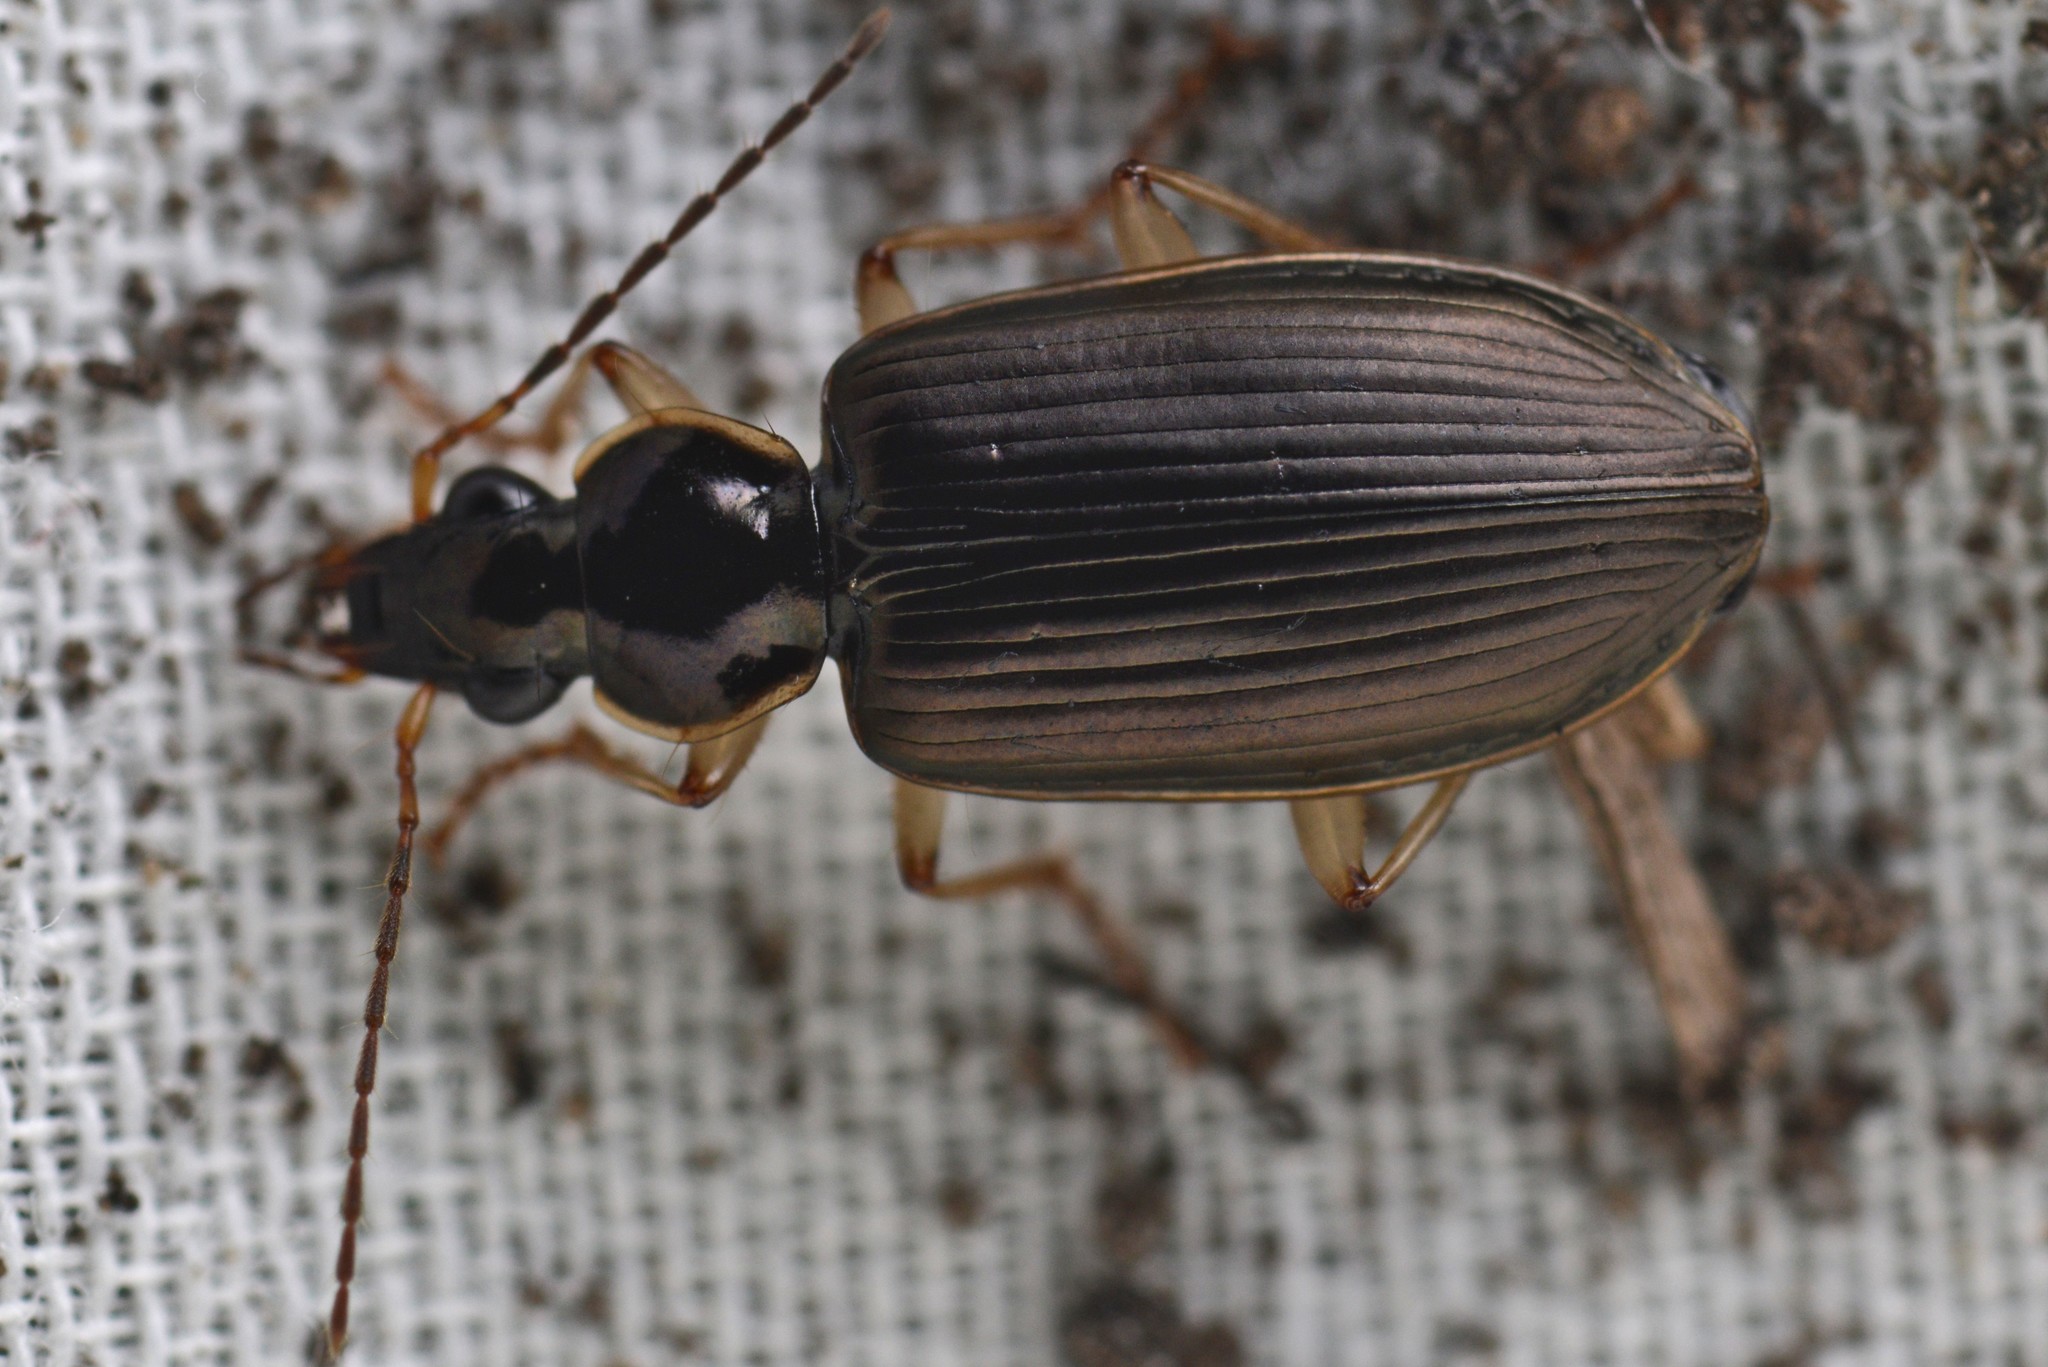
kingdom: Animalia
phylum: Arthropoda
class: Insecta
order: Coleoptera
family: Carabidae
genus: Notagonum
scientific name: Notagonum submetallicum
